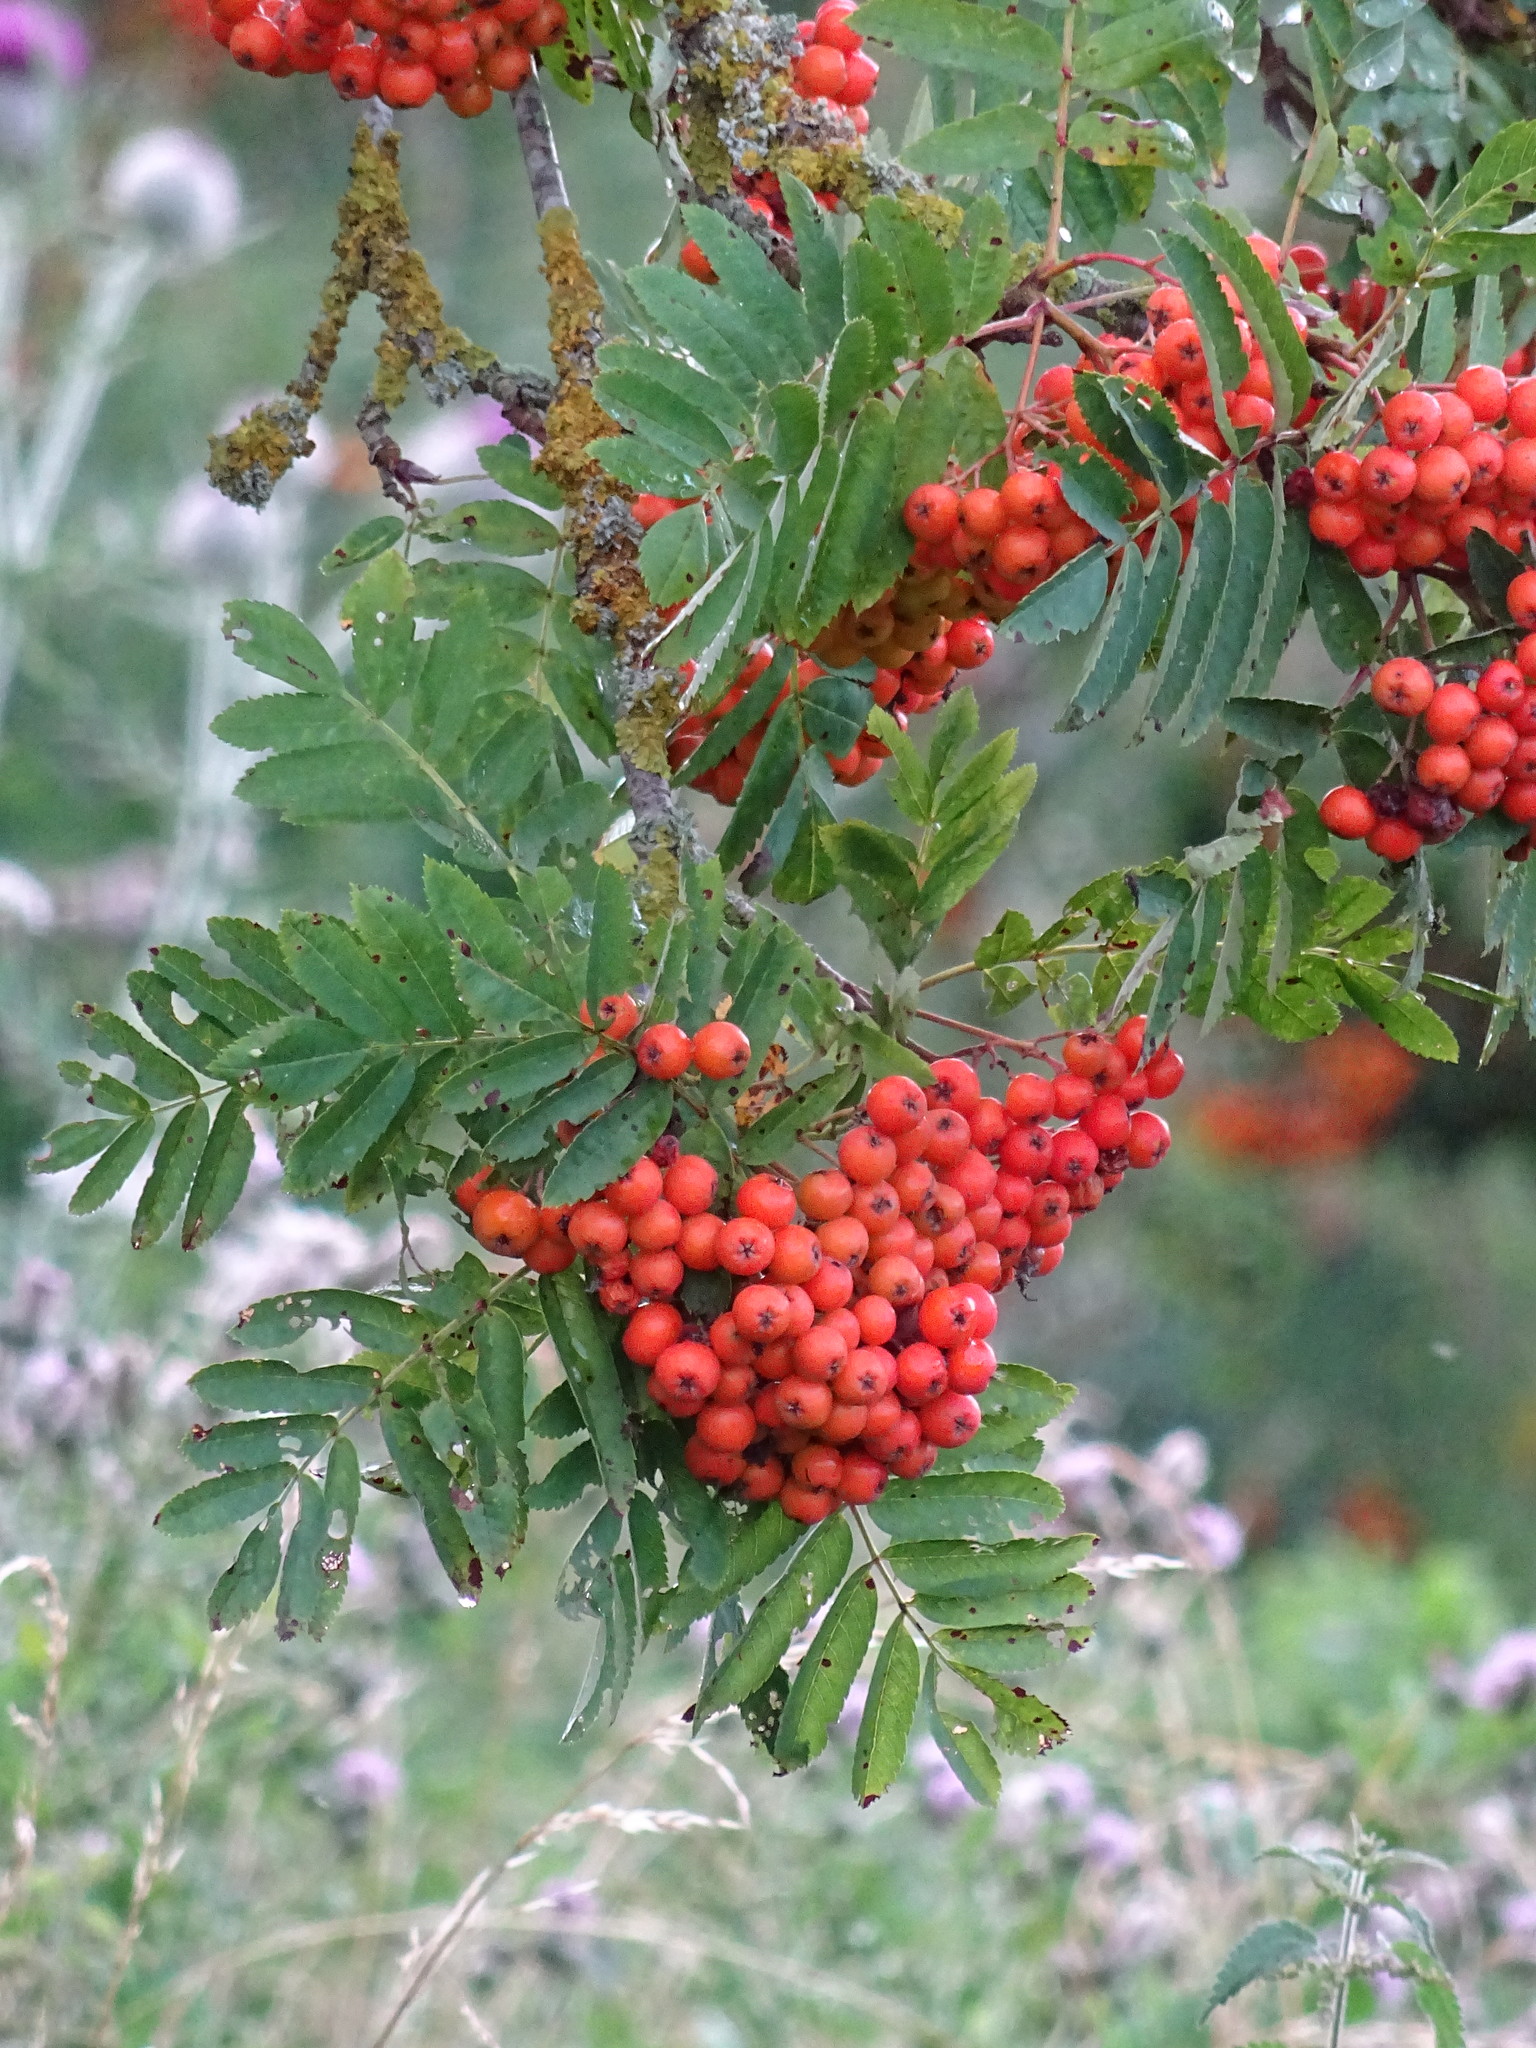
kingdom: Plantae
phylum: Tracheophyta
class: Magnoliopsida
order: Rosales
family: Rosaceae
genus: Sorbus
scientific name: Sorbus aucuparia
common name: Rowan
